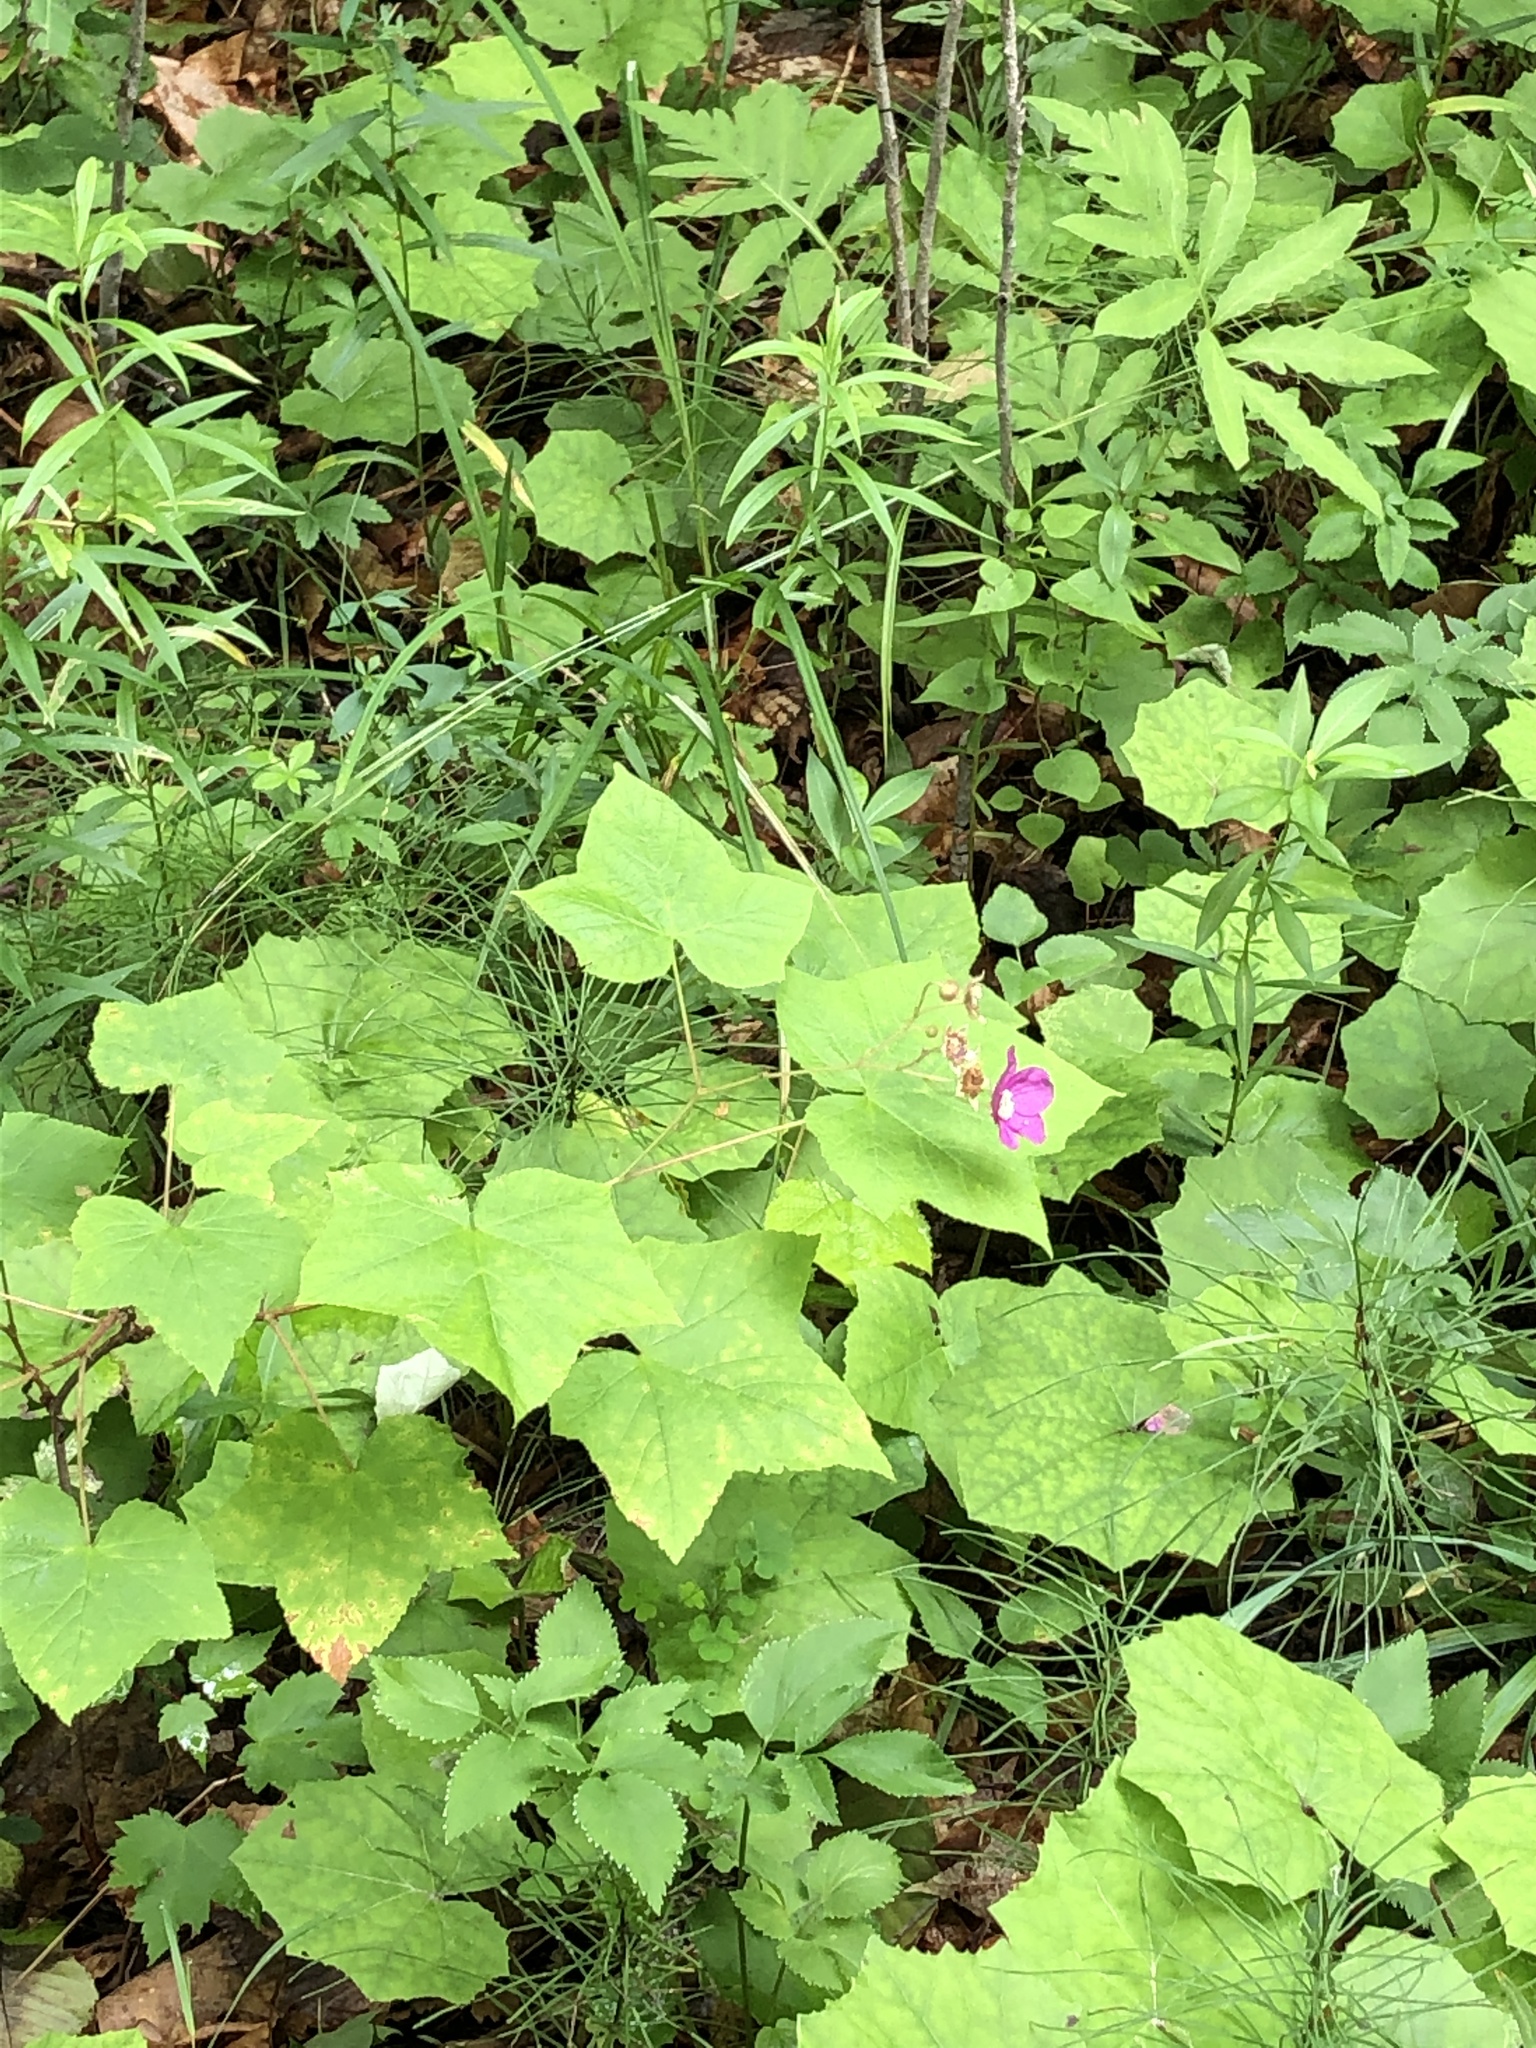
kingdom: Plantae
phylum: Tracheophyta
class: Magnoliopsida
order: Rosales
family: Rosaceae
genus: Rubus
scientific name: Rubus odoratus
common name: Purple-flowered raspberry
